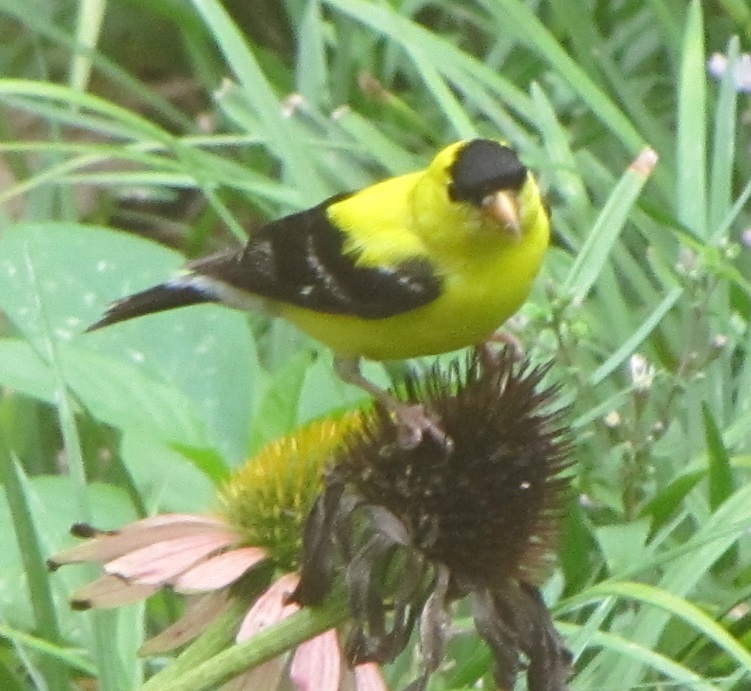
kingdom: Animalia
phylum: Chordata
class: Aves
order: Passeriformes
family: Fringillidae
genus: Spinus
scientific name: Spinus tristis
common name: American goldfinch
